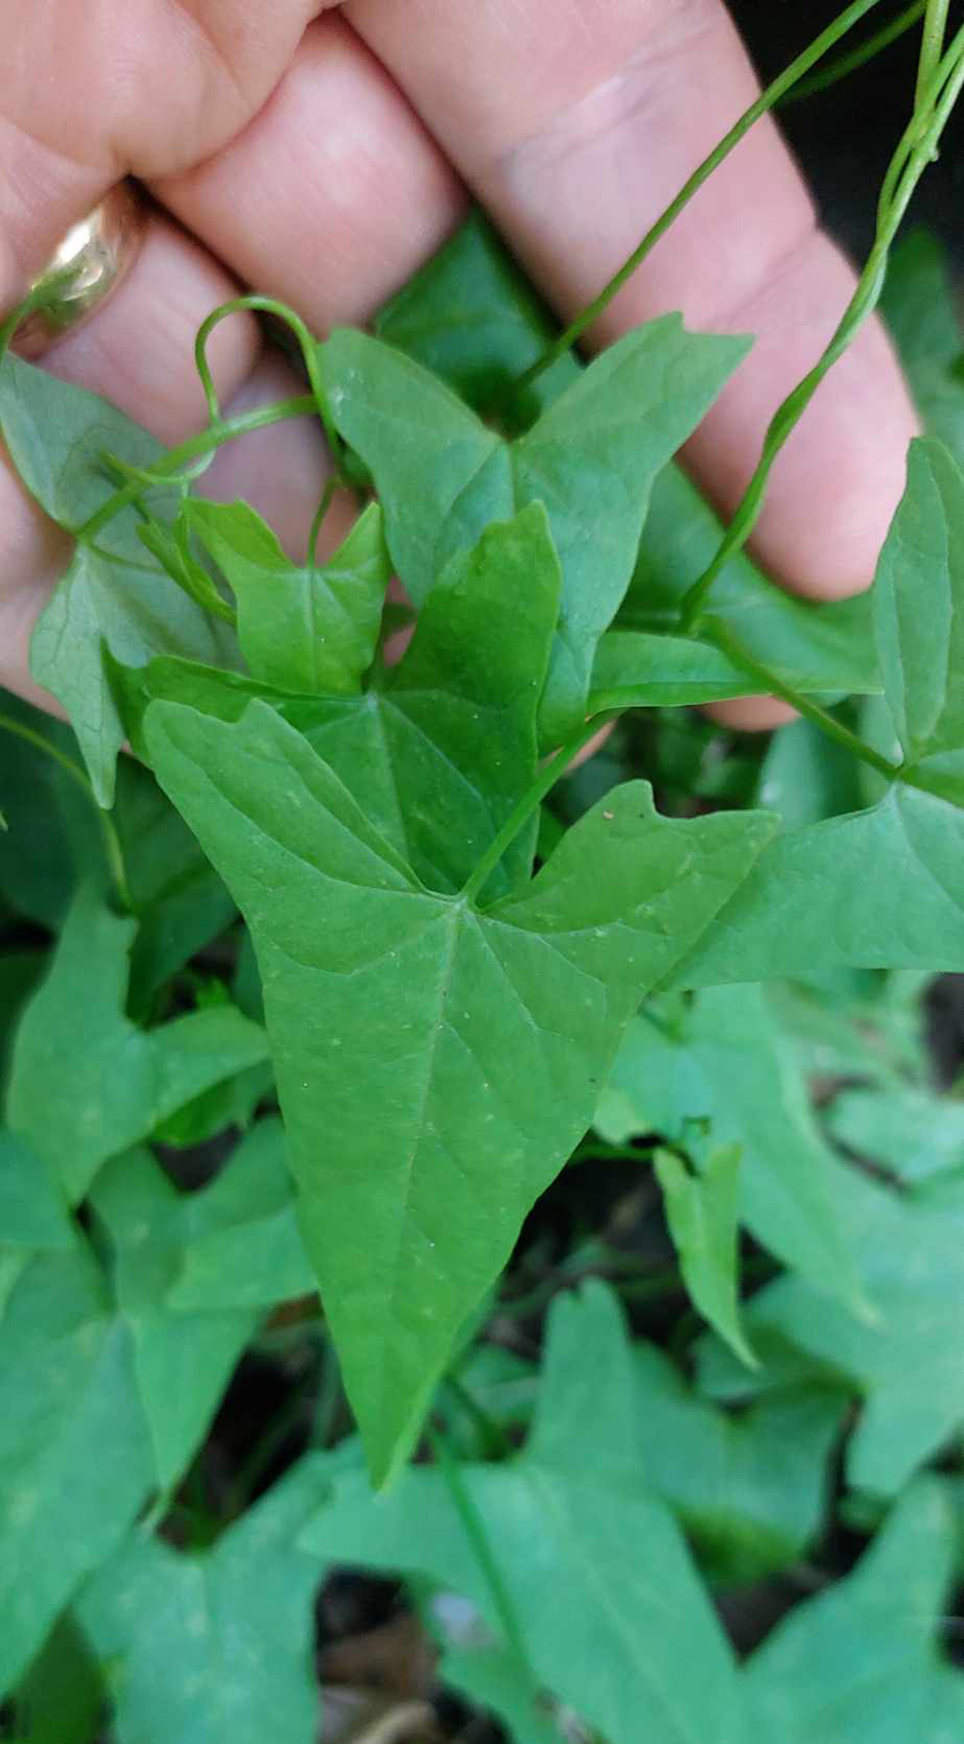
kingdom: Plantae
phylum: Tracheophyta
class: Magnoliopsida
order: Solanales
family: Convolvulaceae
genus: Calystegia
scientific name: Calystegia
